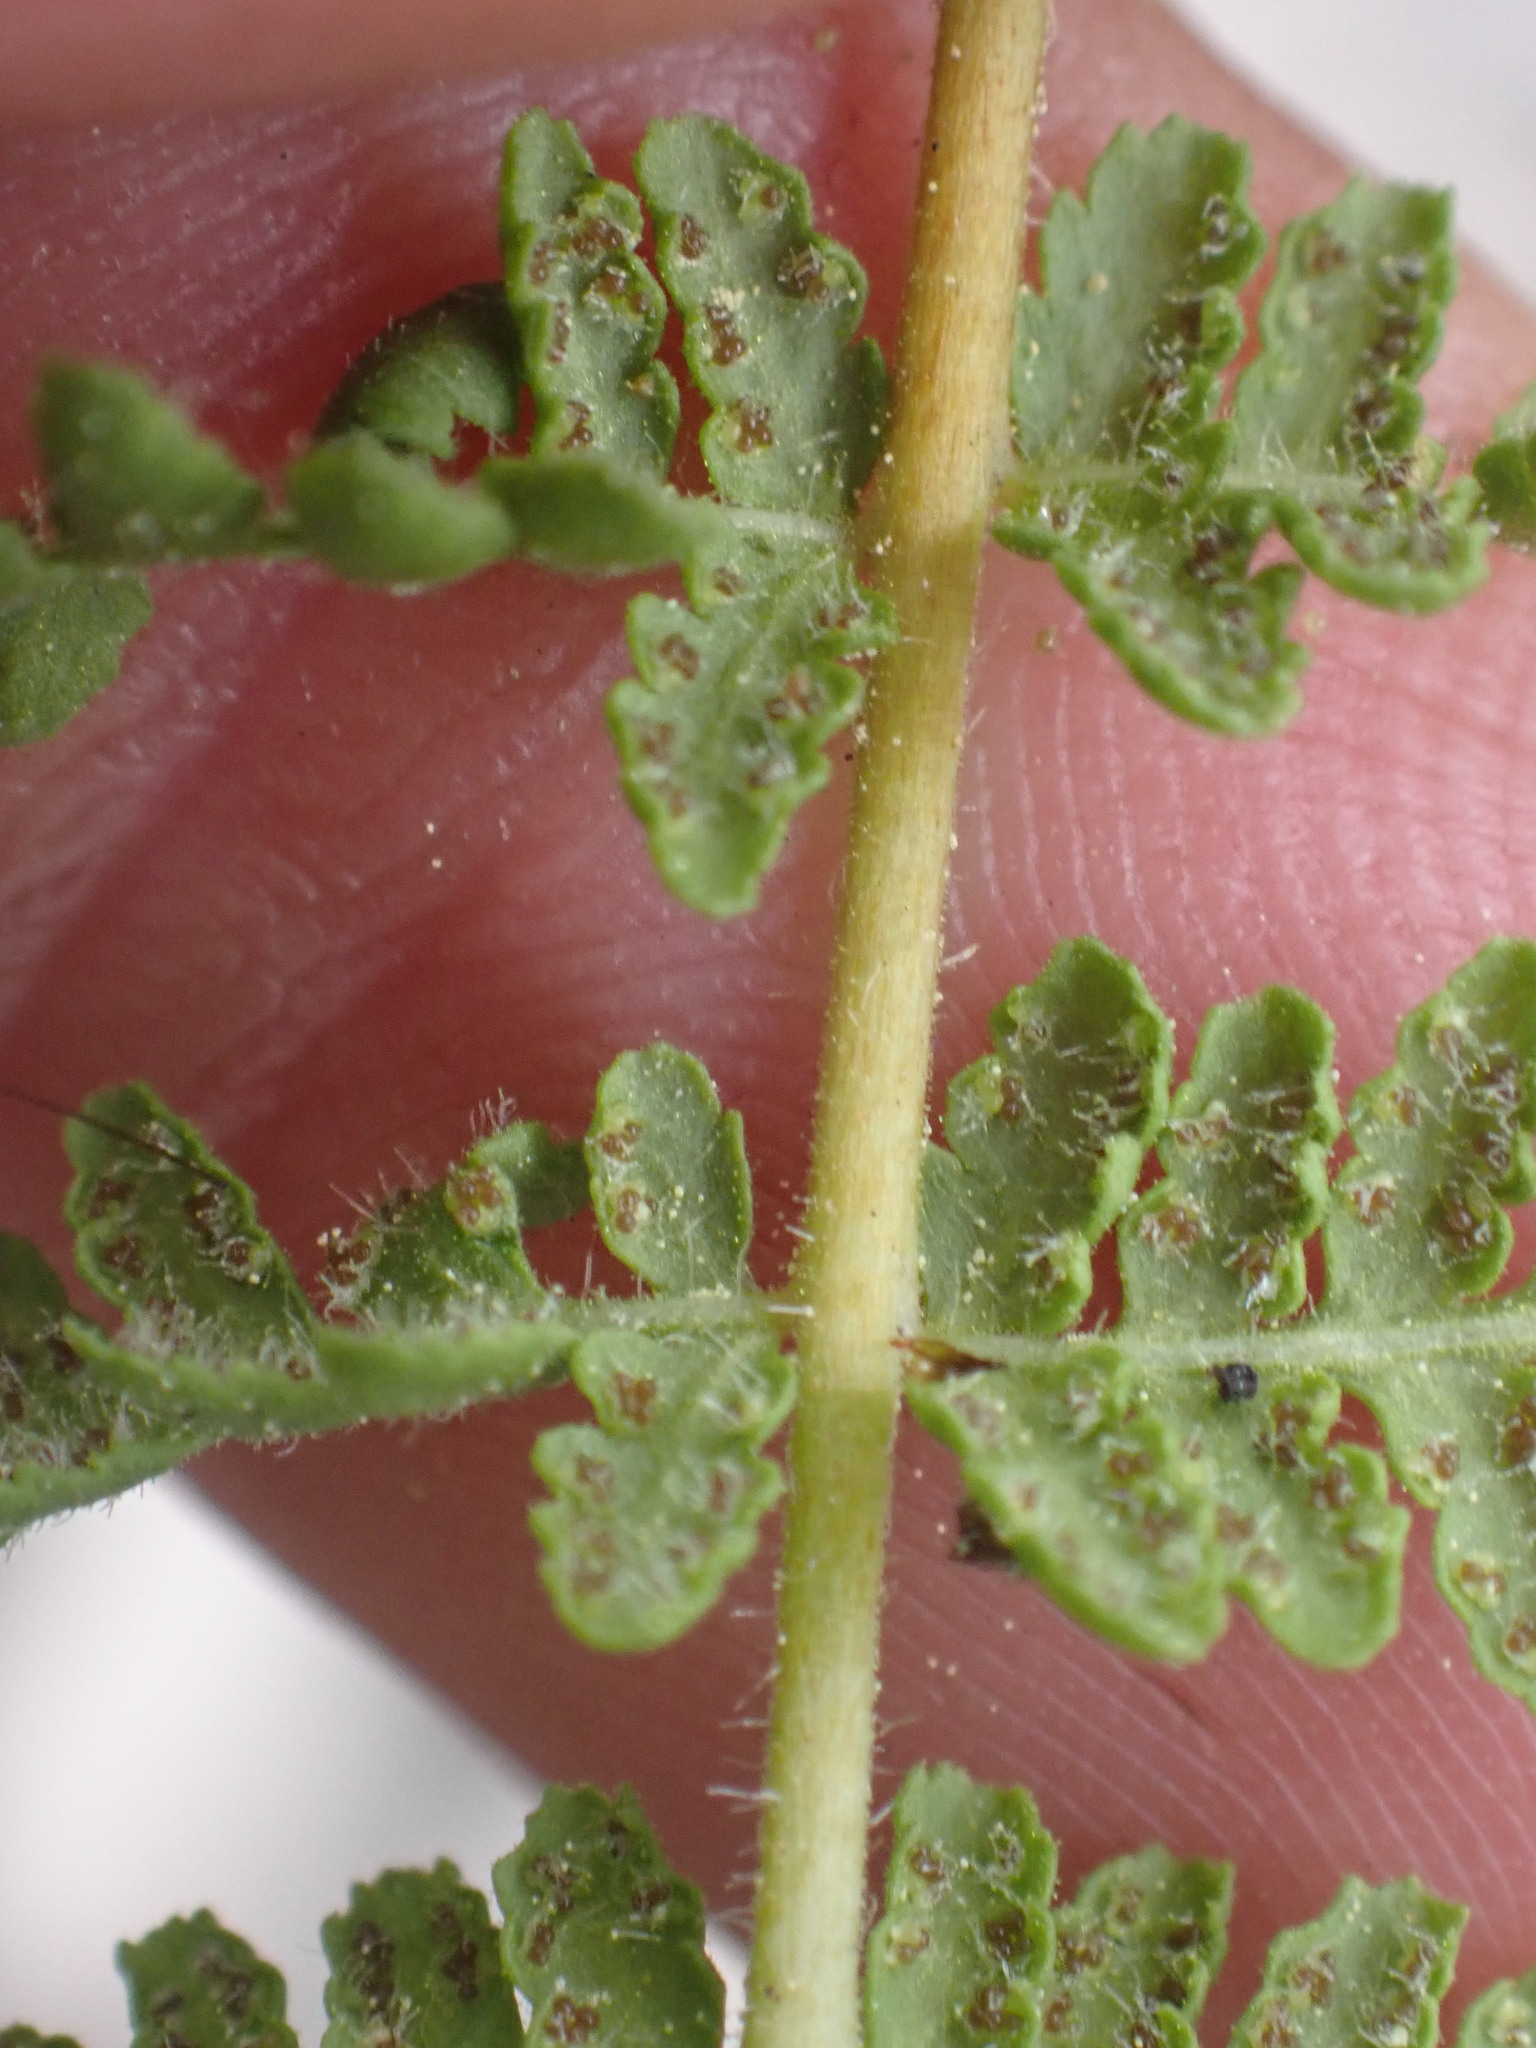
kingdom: Plantae
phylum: Tracheophyta
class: Polypodiopsida
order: Polypodiales
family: Woodsiaceae
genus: Physematium
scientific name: Physematium scopulinum
